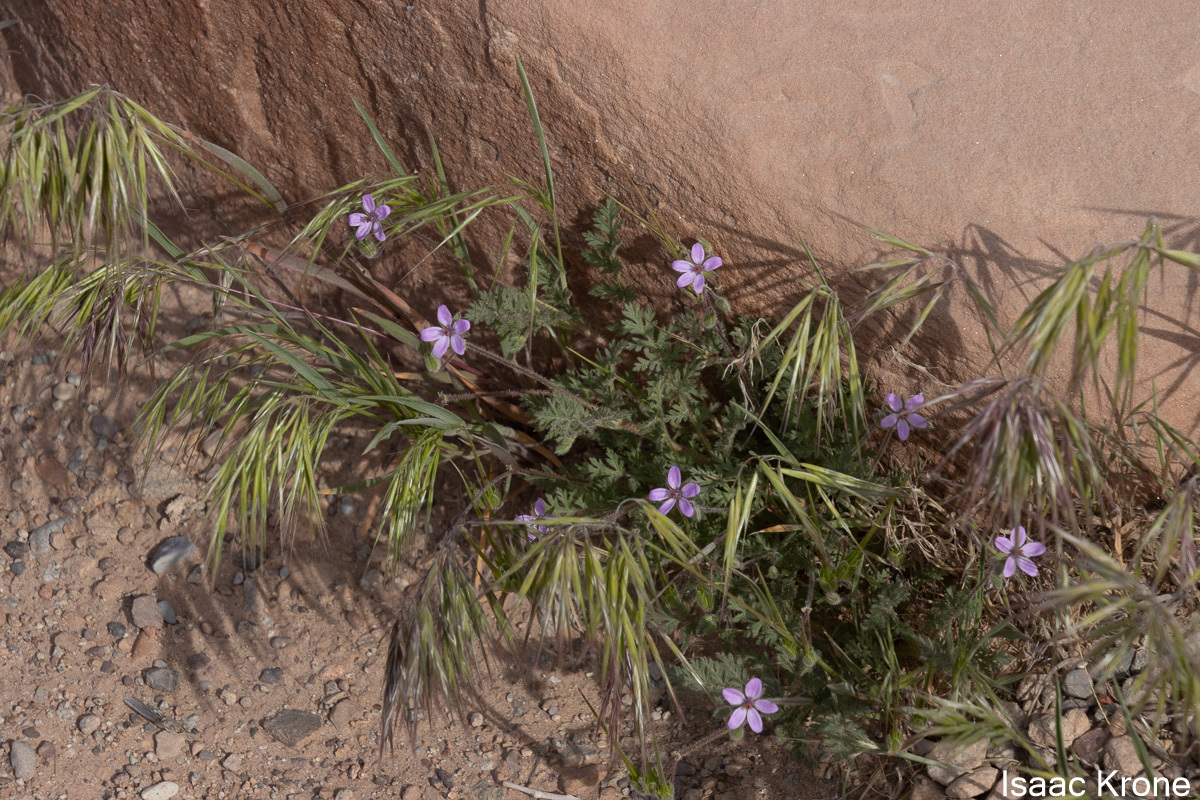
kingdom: Plantae
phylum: Tracheophyta
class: Magnoliopsida
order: Geraniales
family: Geraniaceae
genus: Erodium
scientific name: Erodium cicutarium
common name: Common stork's-bill
